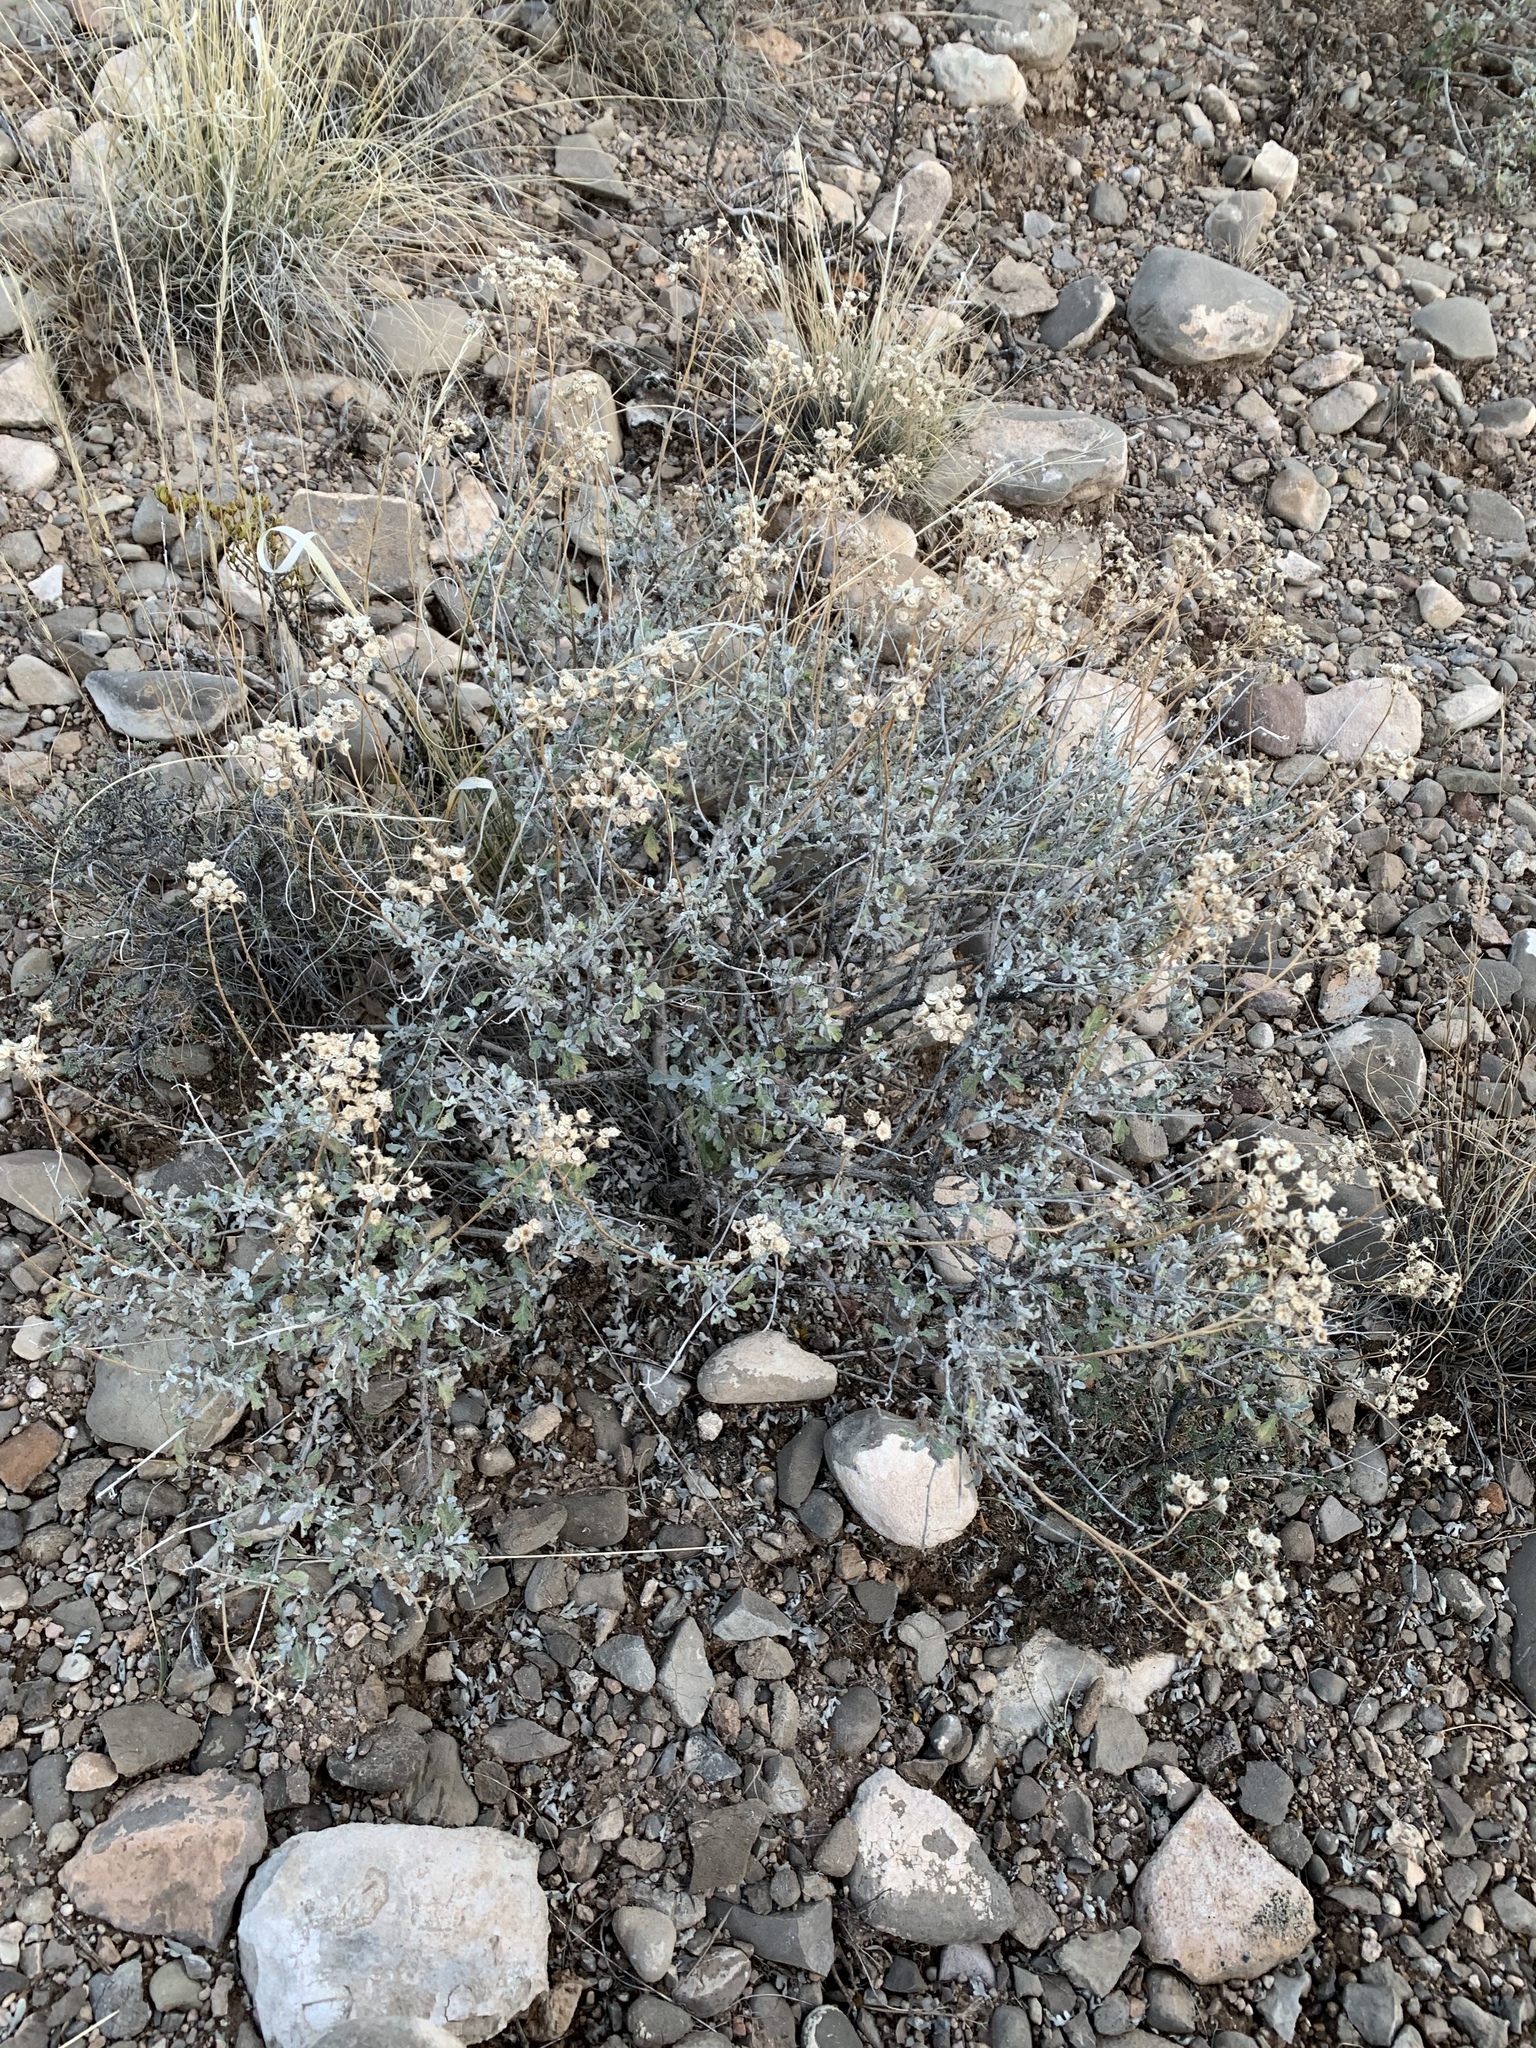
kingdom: Plantae
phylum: Tracheophyta
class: Magnoliopsida
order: Asterales
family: Asteraceae
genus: Parthenium
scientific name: Parthenium incanum
